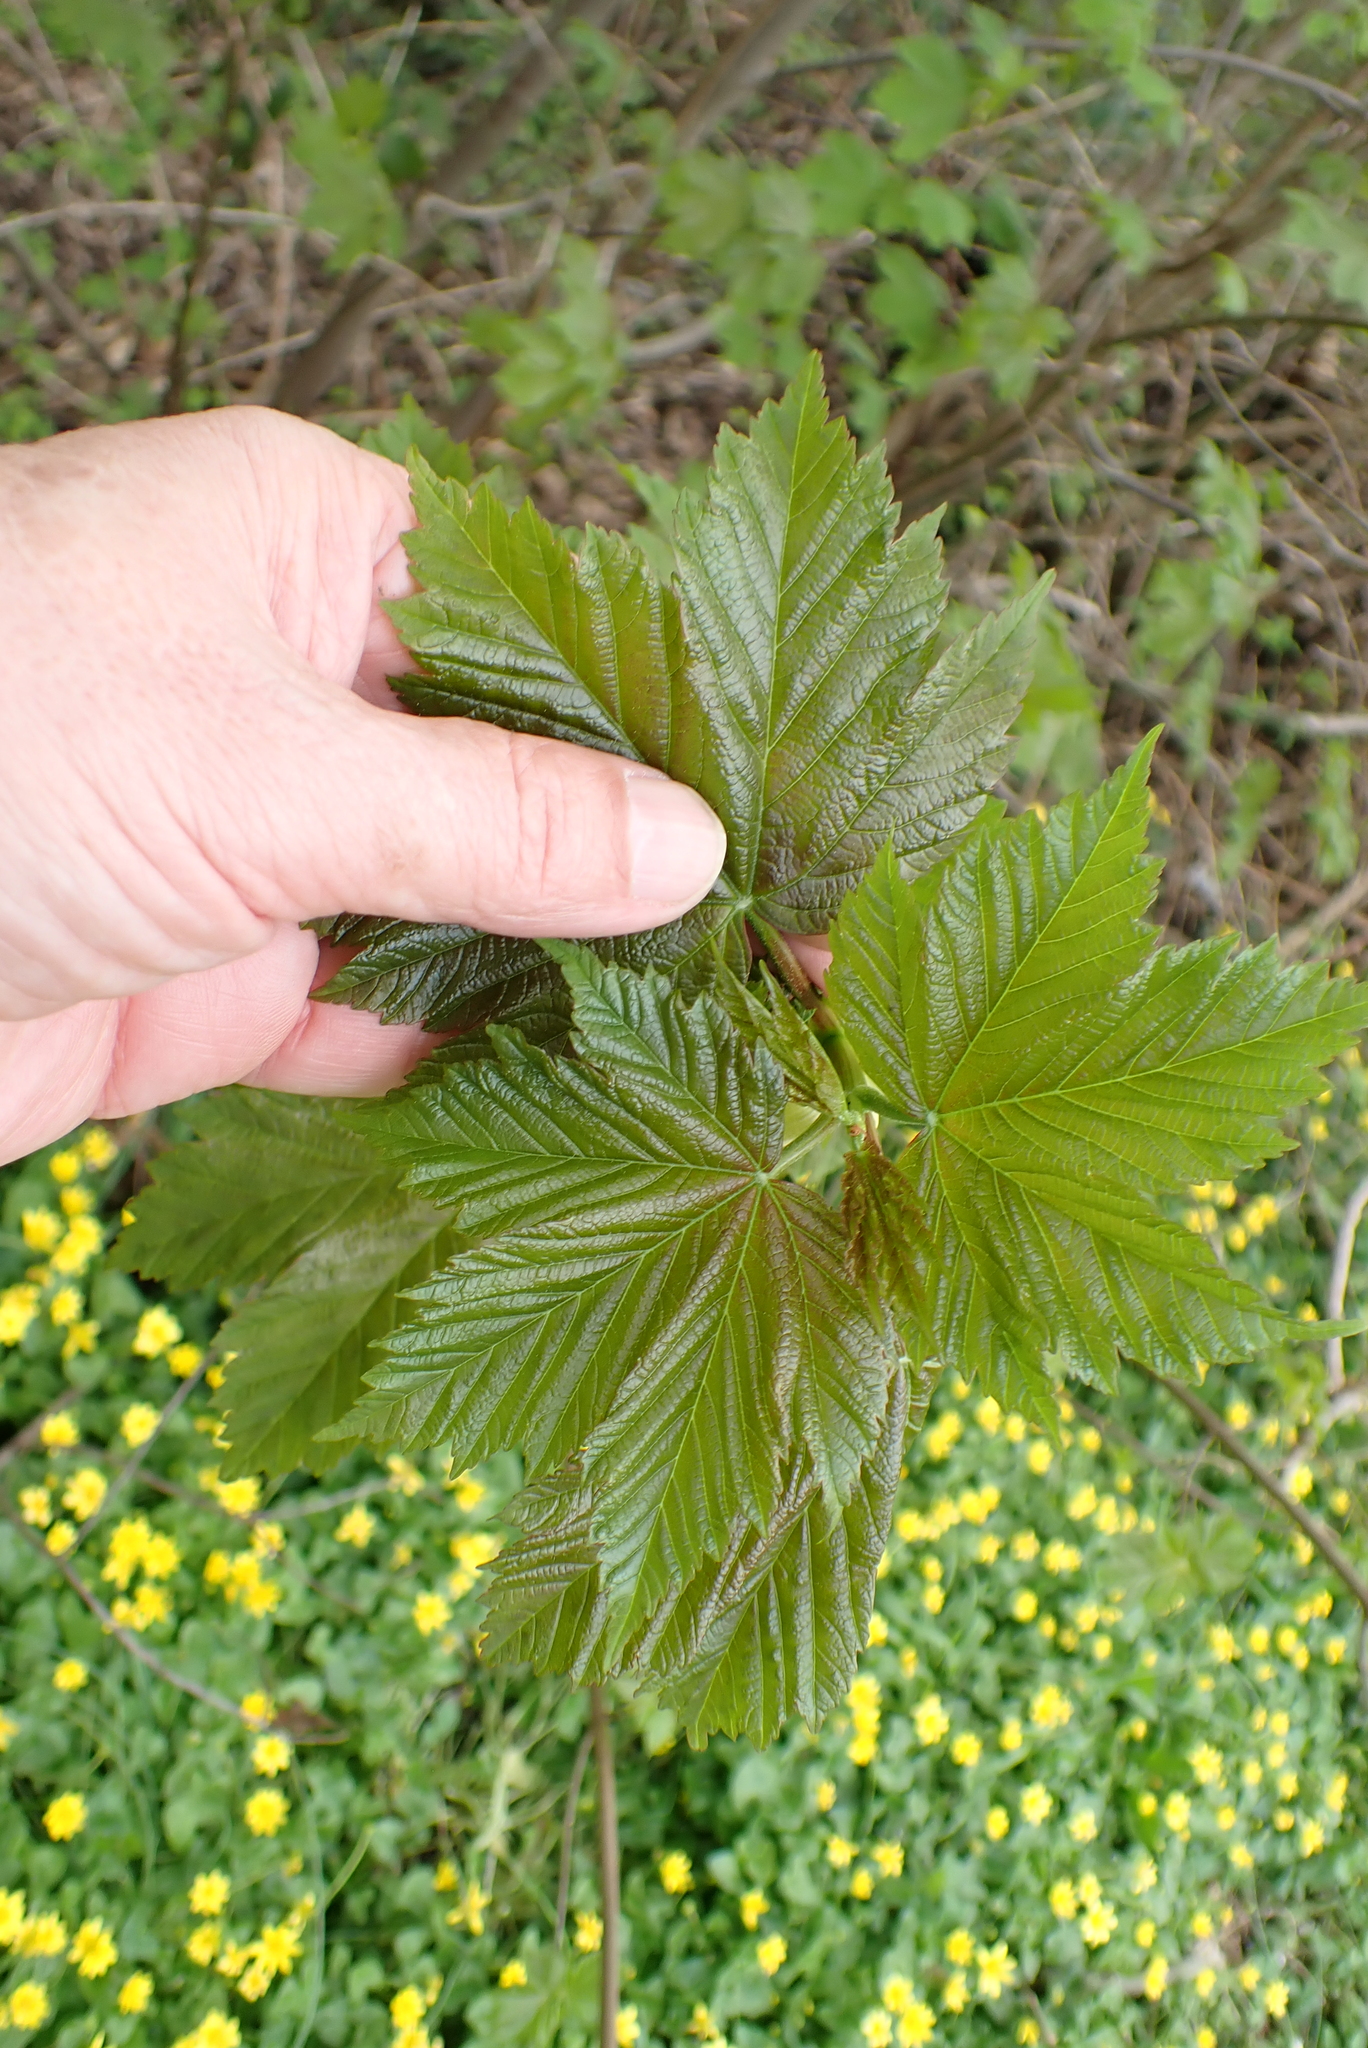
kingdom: Plantae
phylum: Tracheophyta
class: Magnoliopsida
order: Sapindales
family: Sapindaceae
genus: Acer
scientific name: Acer pseudoplatanus
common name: Sycamore
